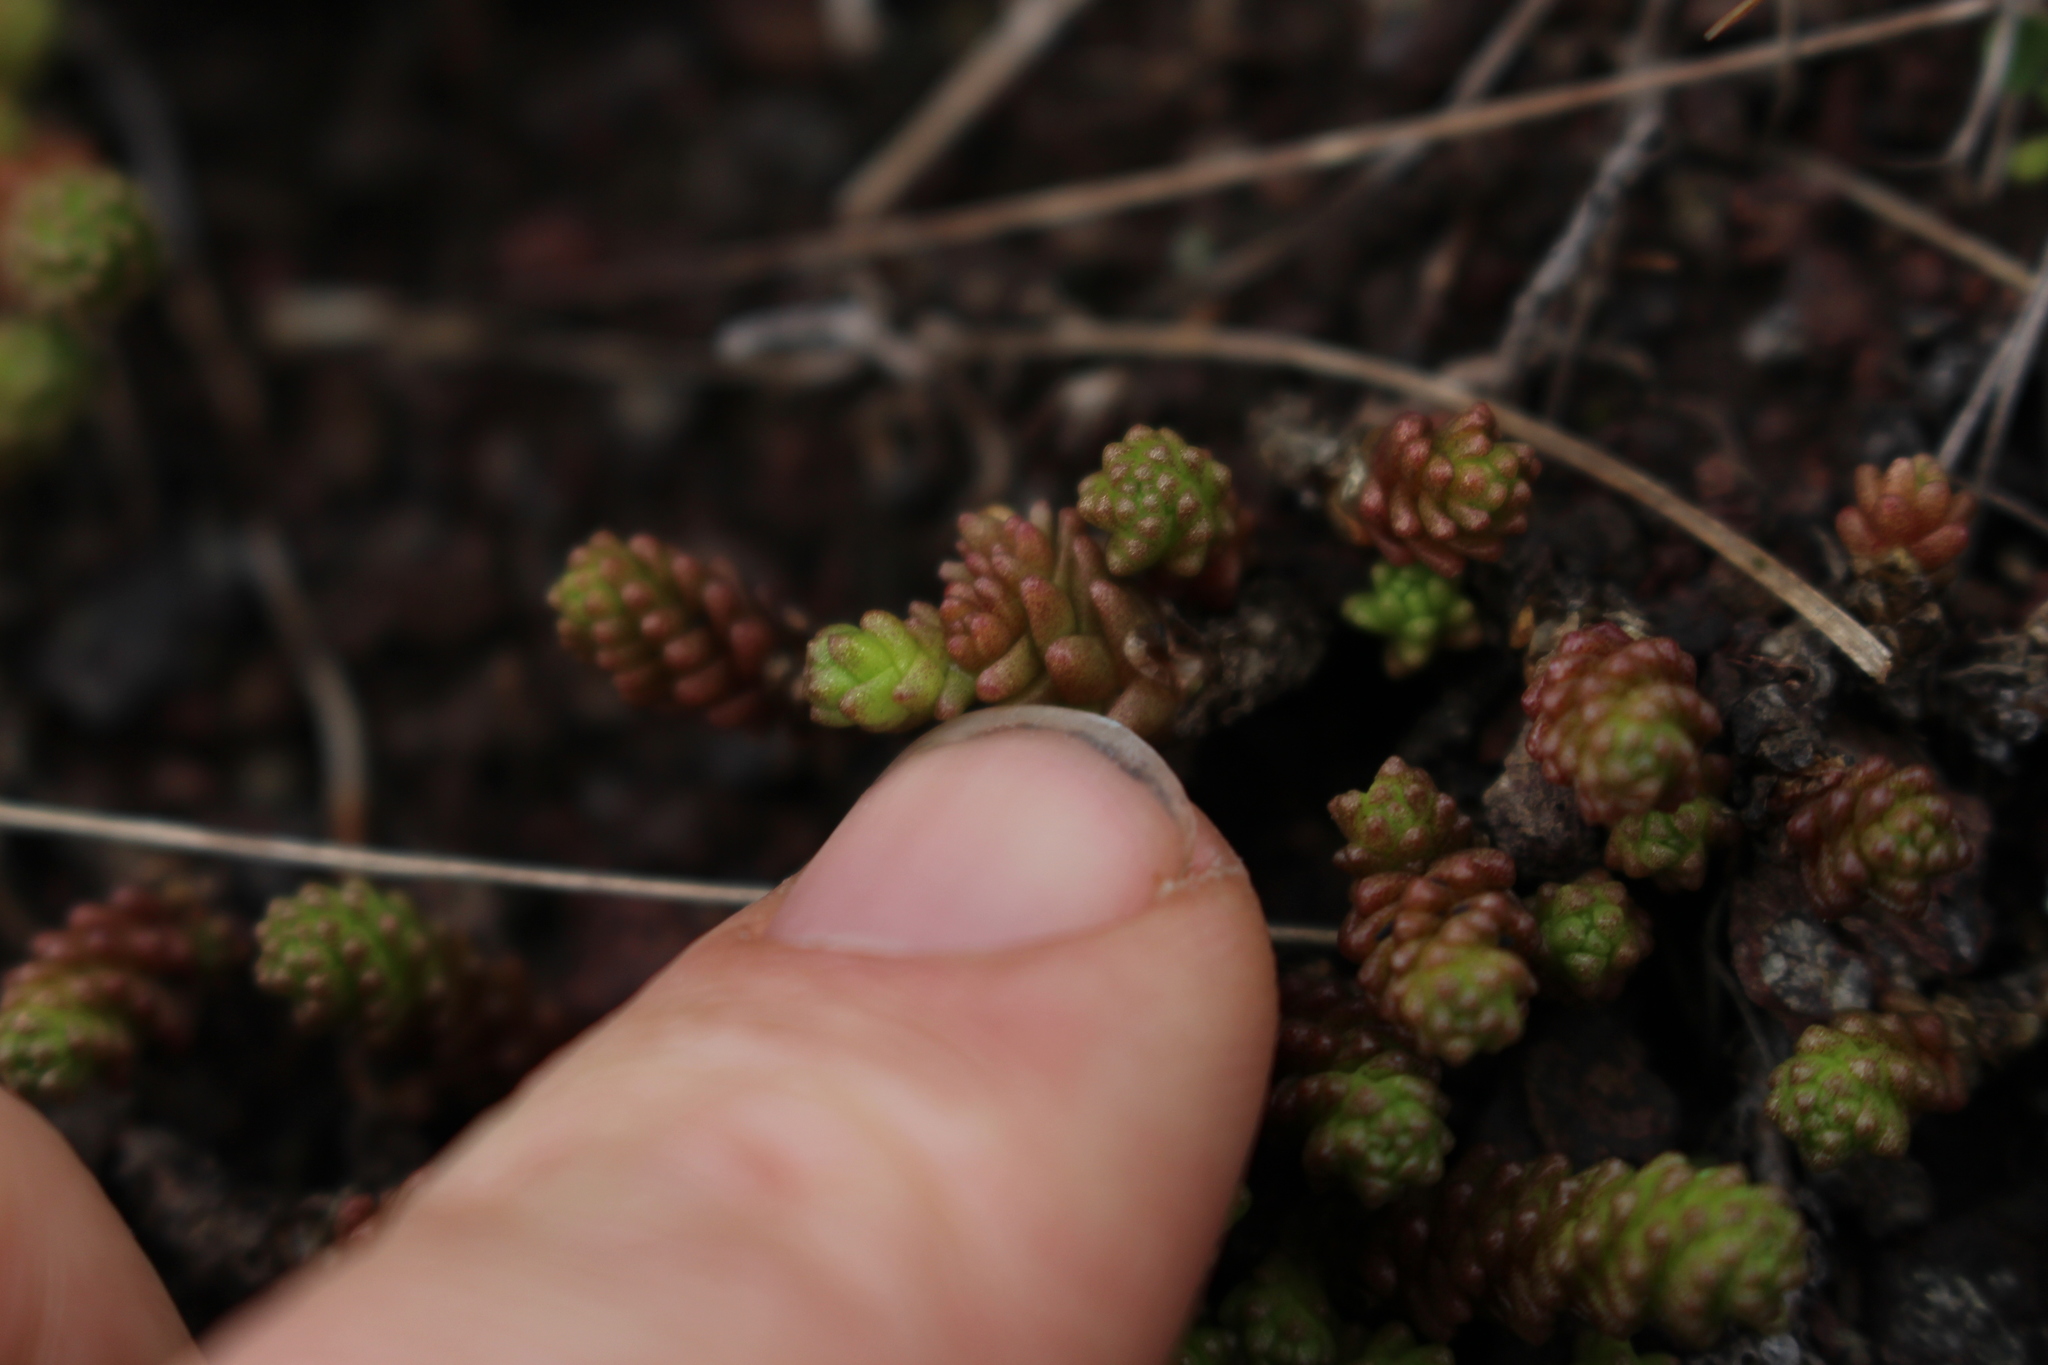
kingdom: Plantae
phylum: Tracheophyta
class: Magnoliopsida
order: Saxifragales
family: Crassulaceae
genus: Sedum
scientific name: Sedum acre
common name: Biting stonecrop
